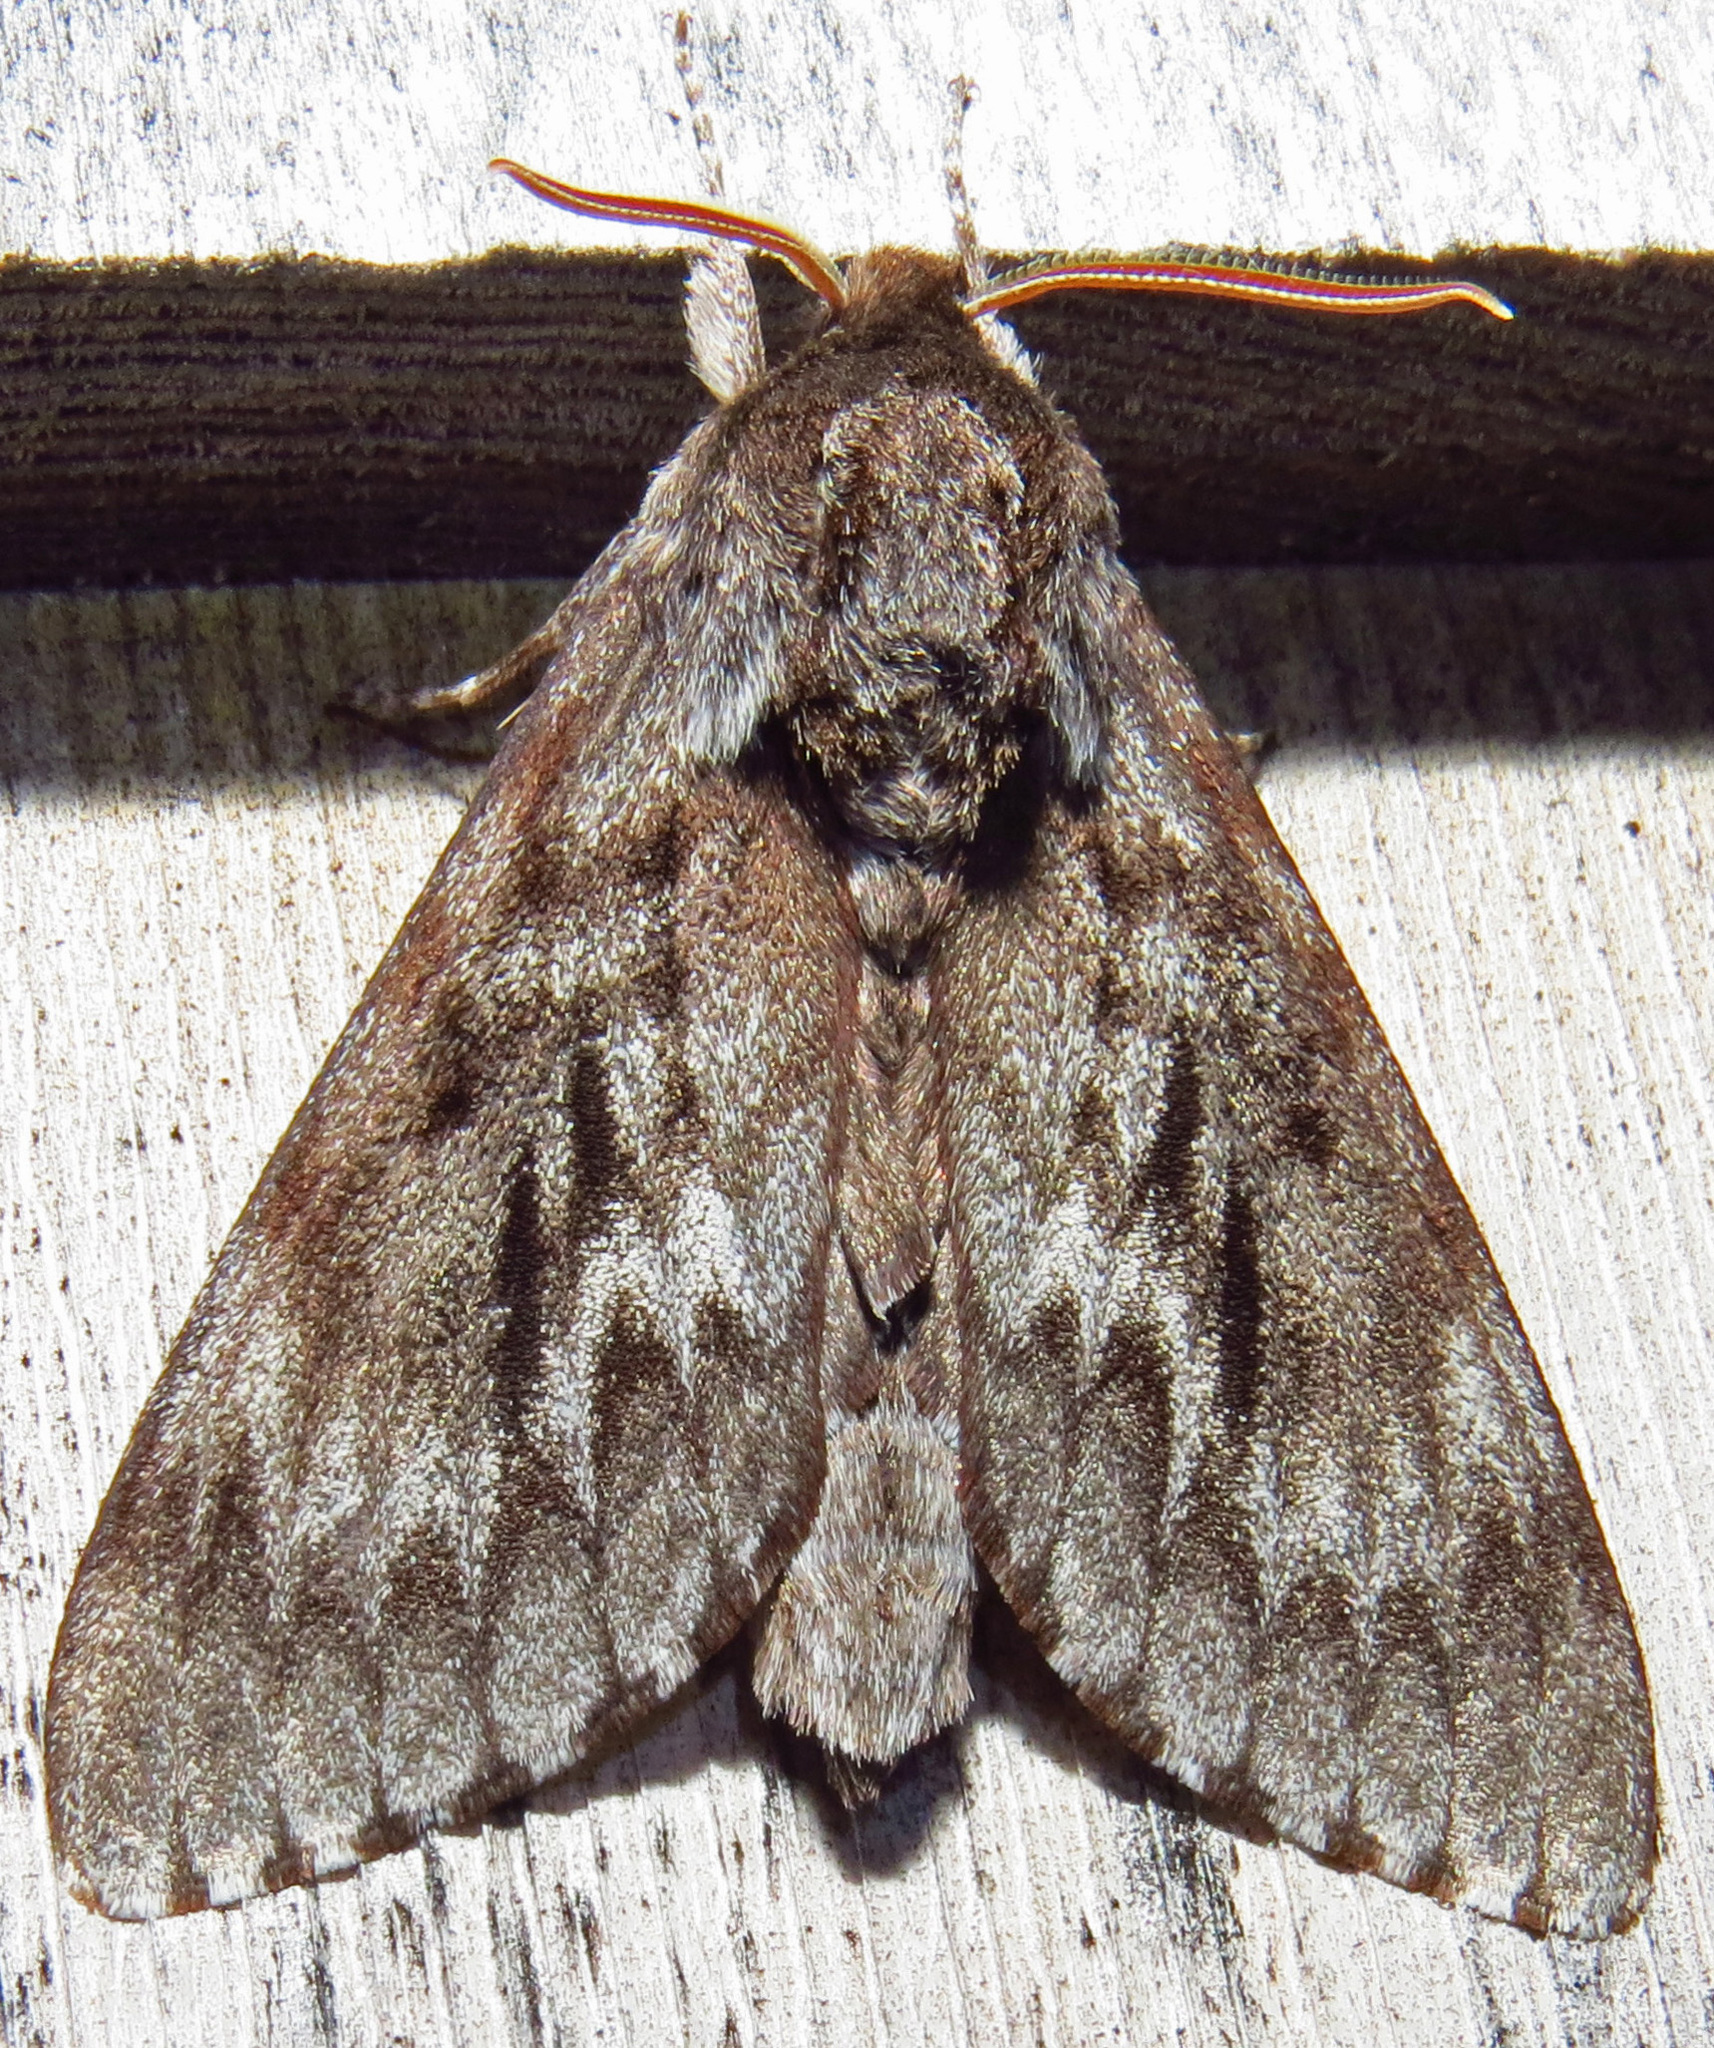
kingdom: Animalia
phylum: Arthropoda
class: Insecta
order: Lepidoptera
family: Sphingidae
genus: Lapara
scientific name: Lapara bombycoides
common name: Northern pine sphinx
